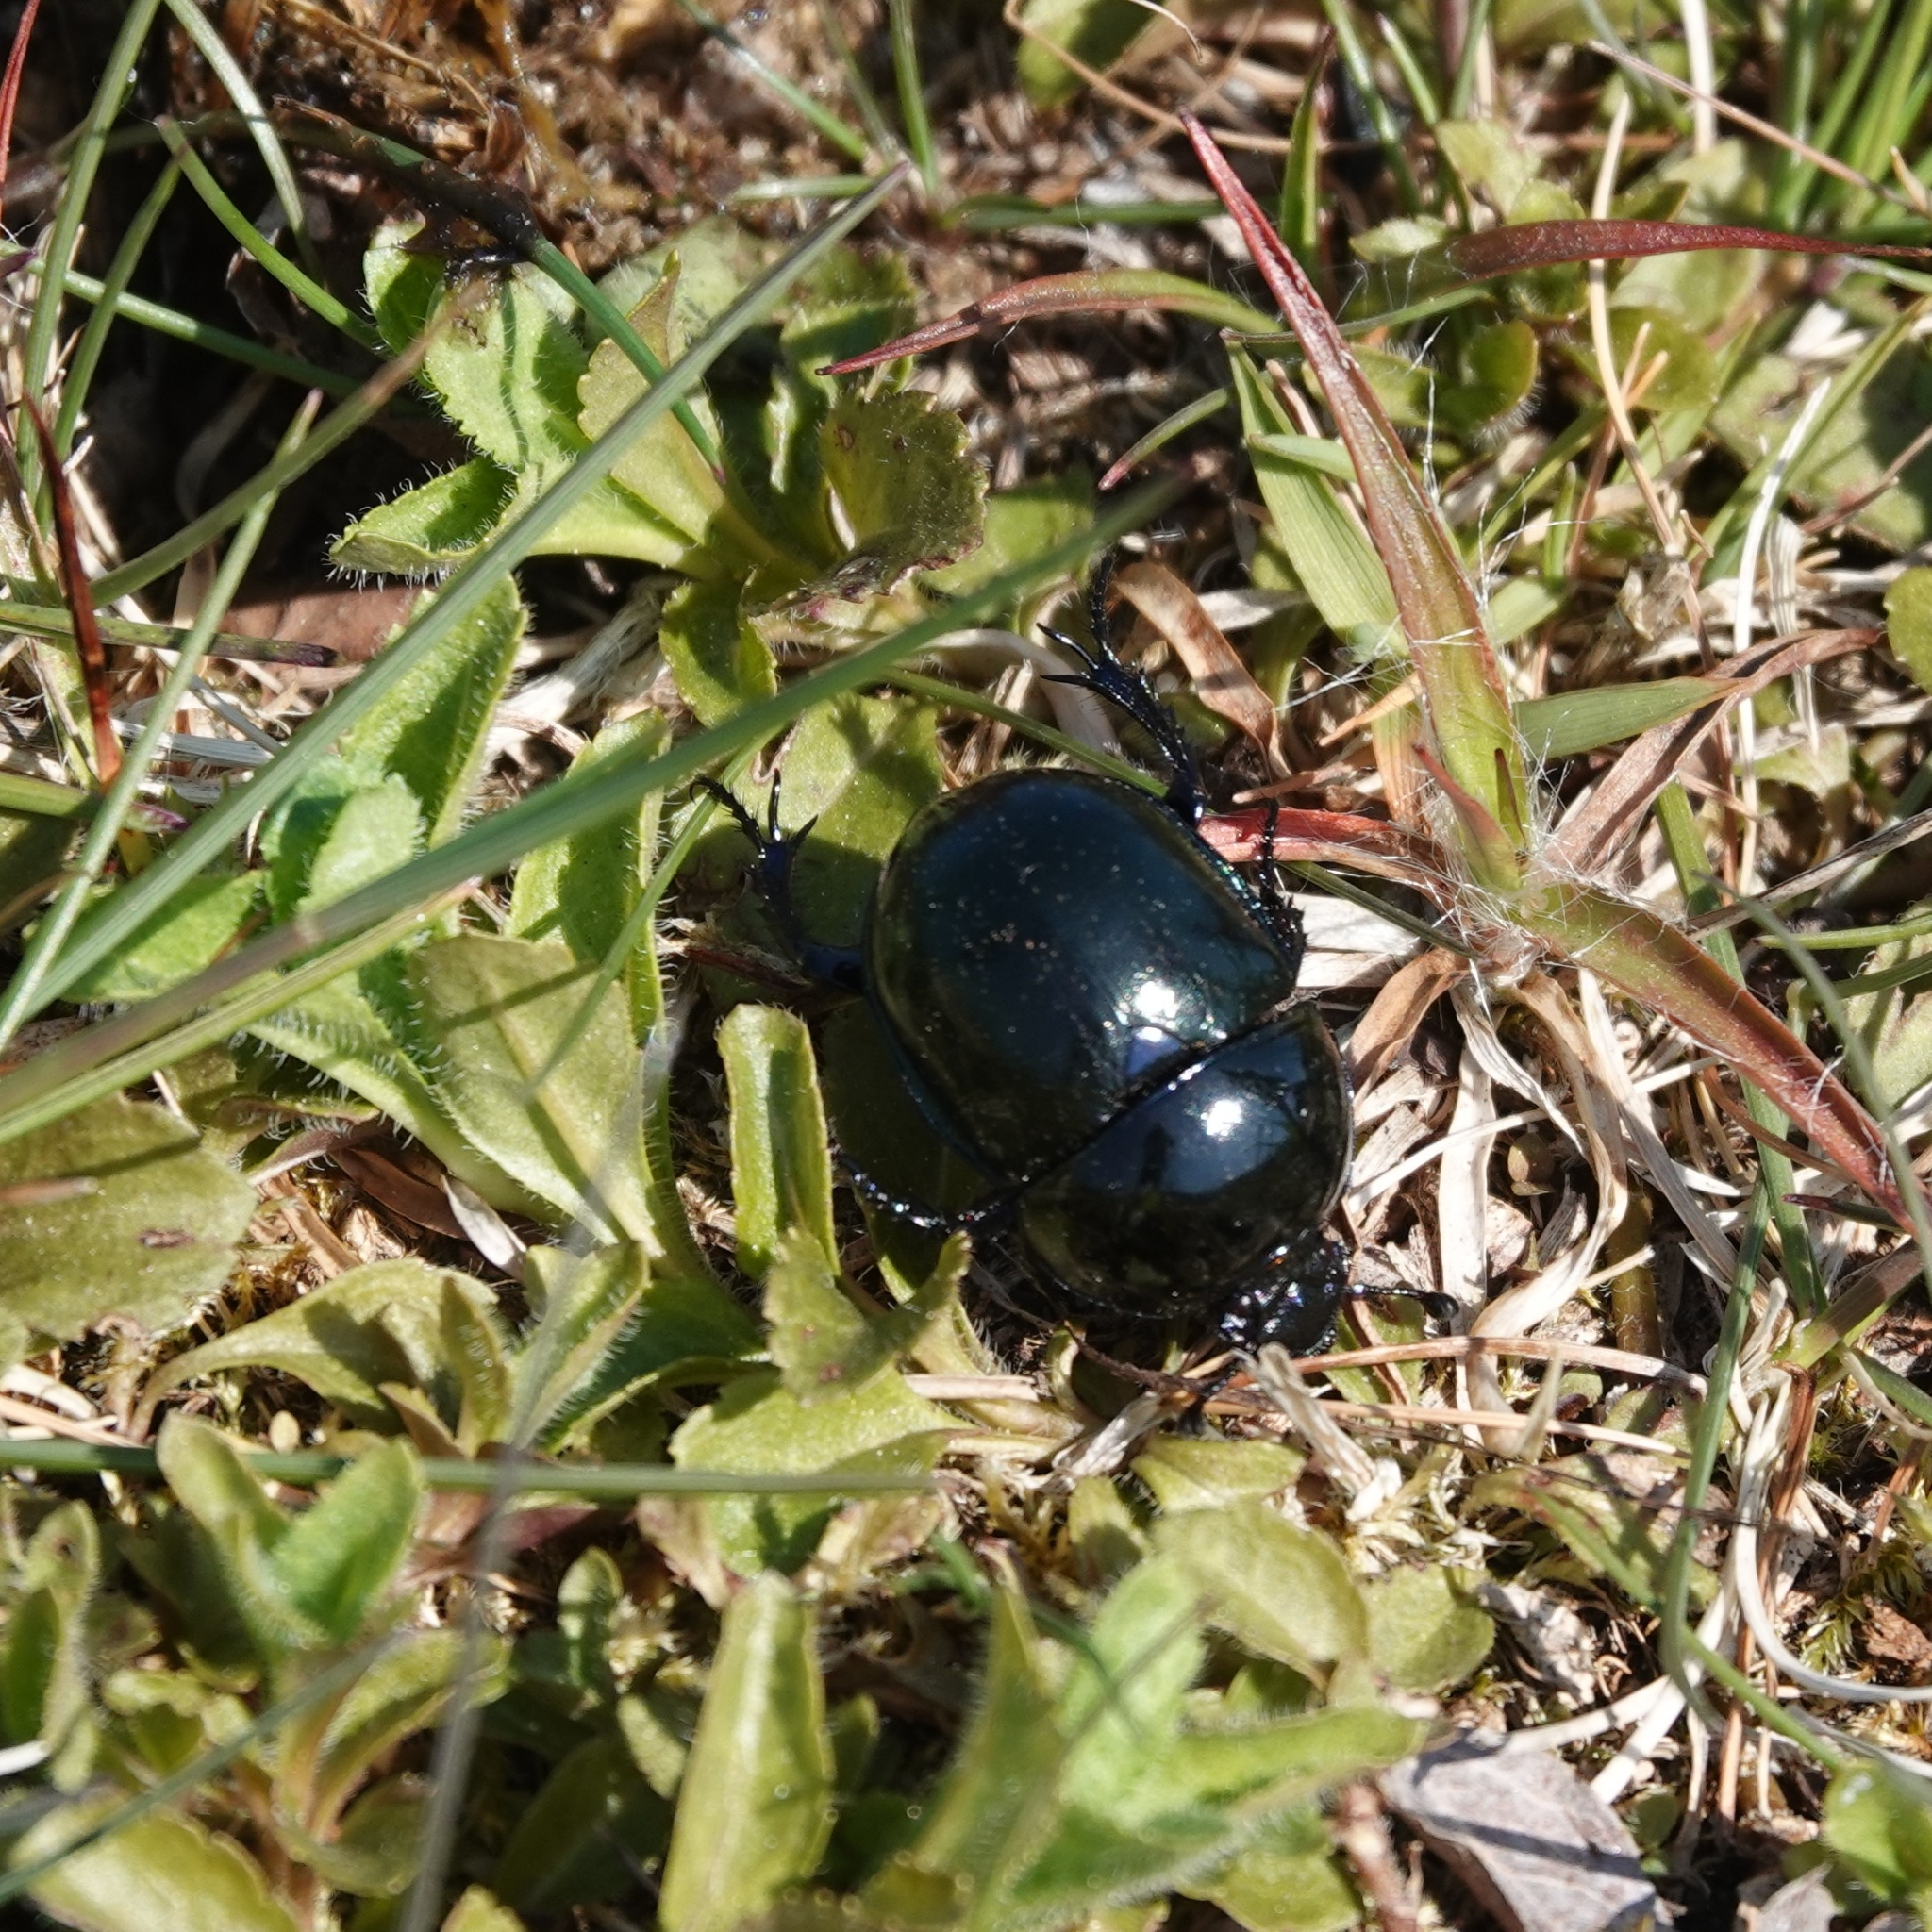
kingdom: Animalia
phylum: Arthropoda
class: Insecta
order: Coleoptera
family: Geotrupidae
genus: Trypocopris
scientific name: Trypocopris vernalis
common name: Spring dumbledor
